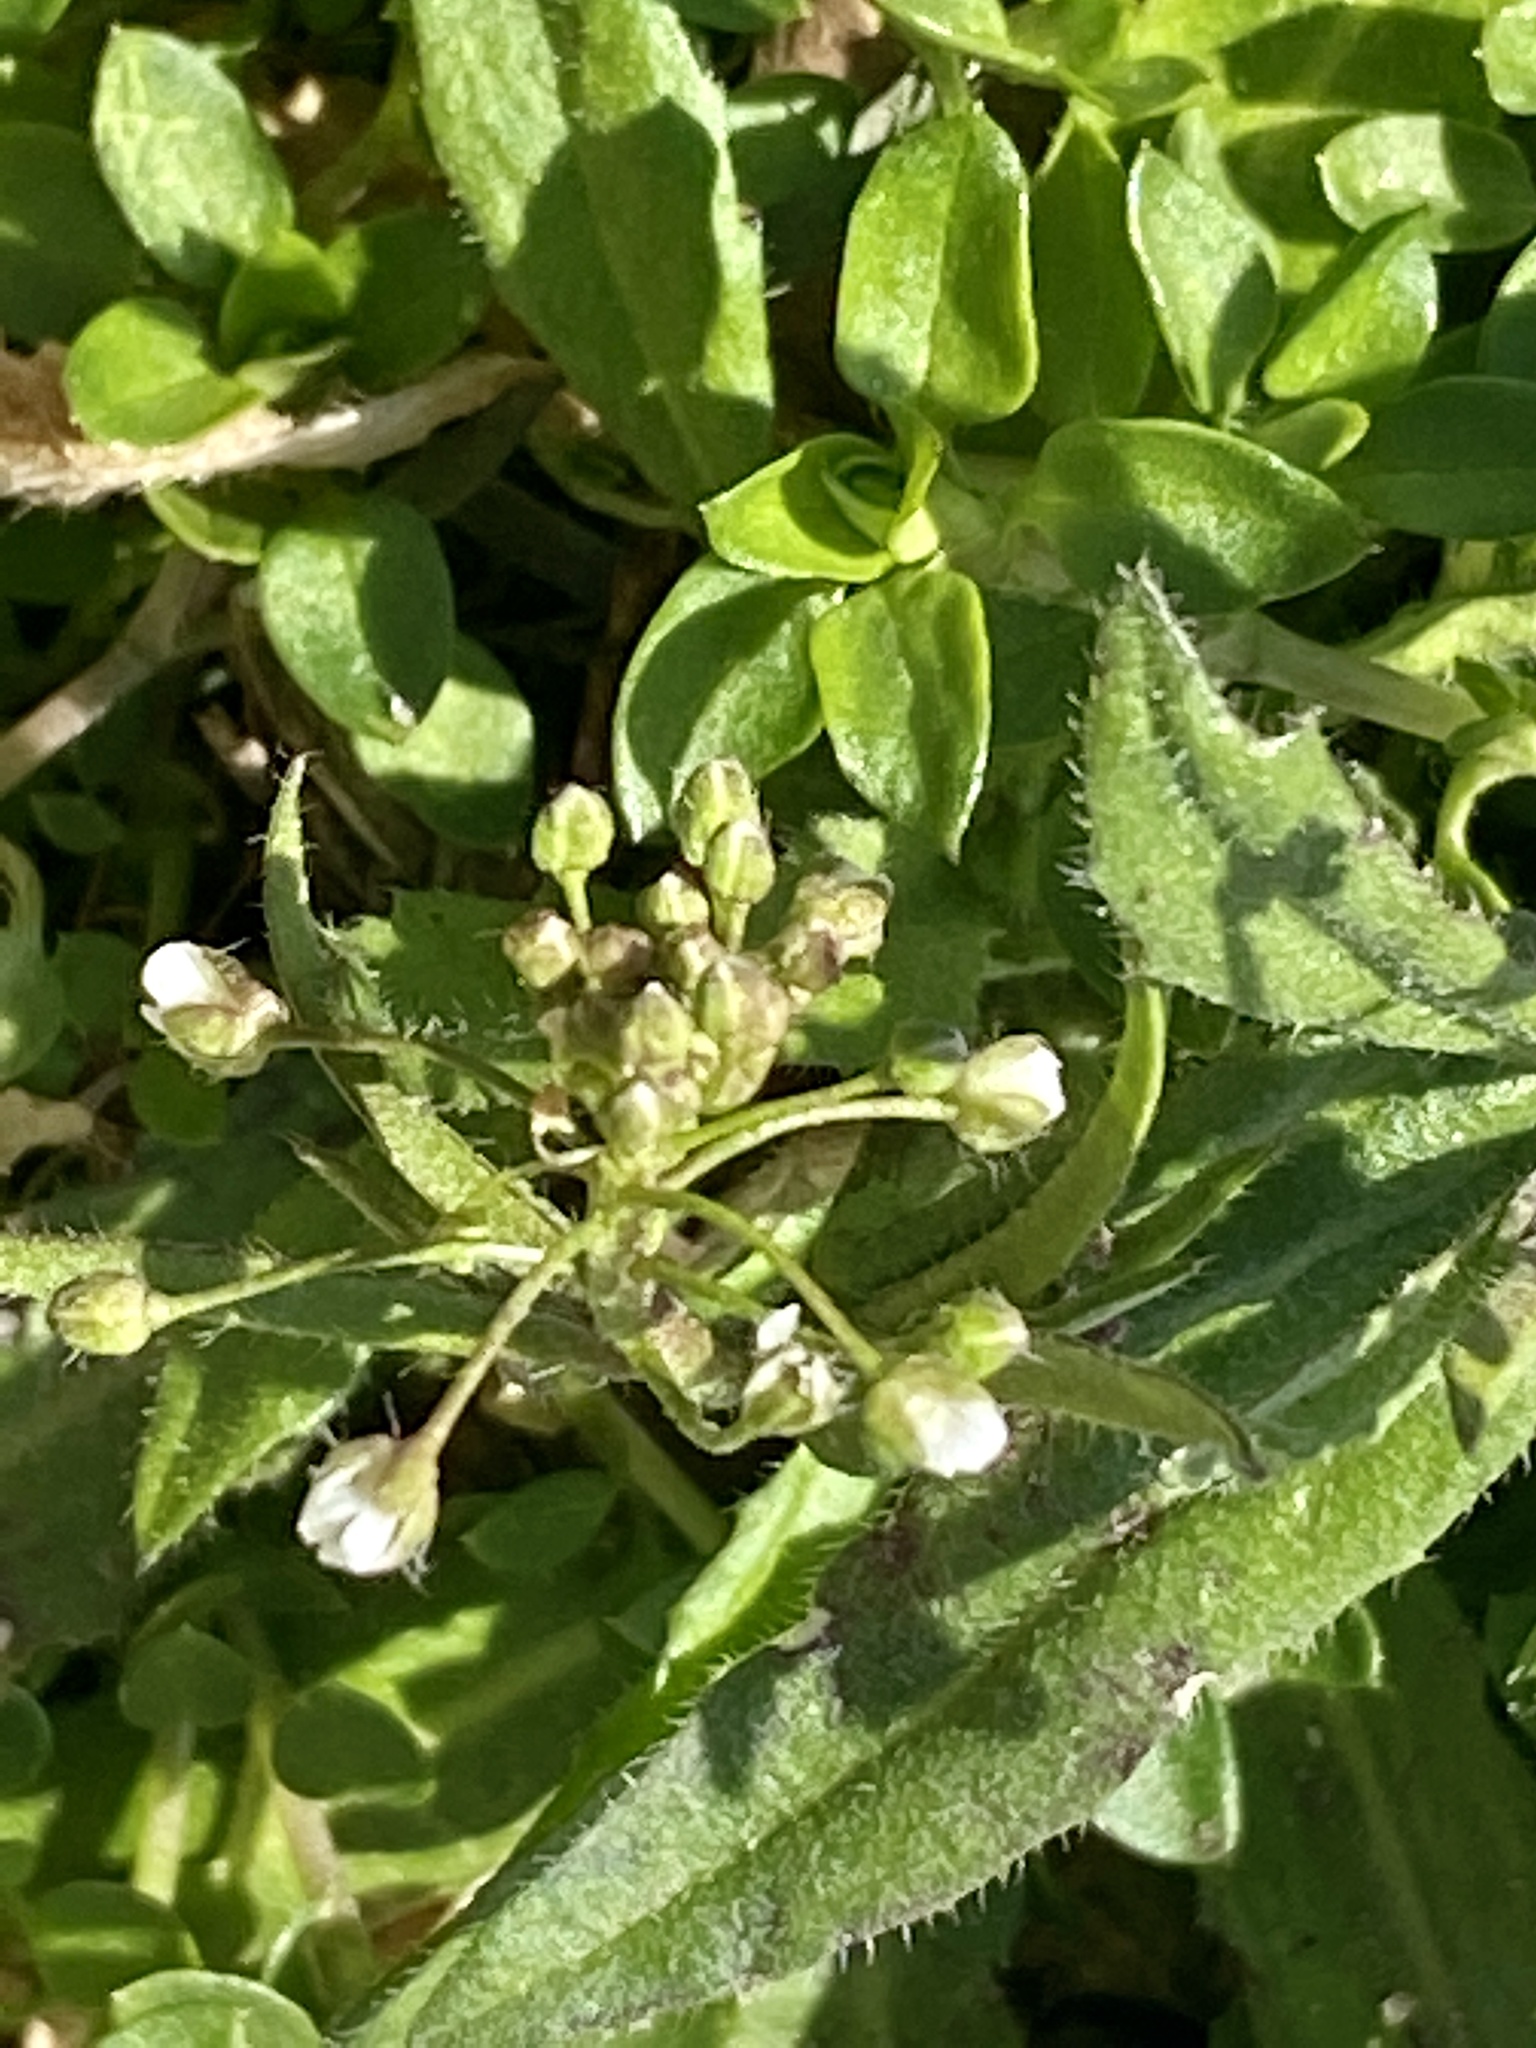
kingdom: Plantae
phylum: Tracheophyta
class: Magnoliopsida
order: Brassicales
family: Brassicaceae
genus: Capsella
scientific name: Capsella bursa-pastoris
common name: Shepherd's purse
